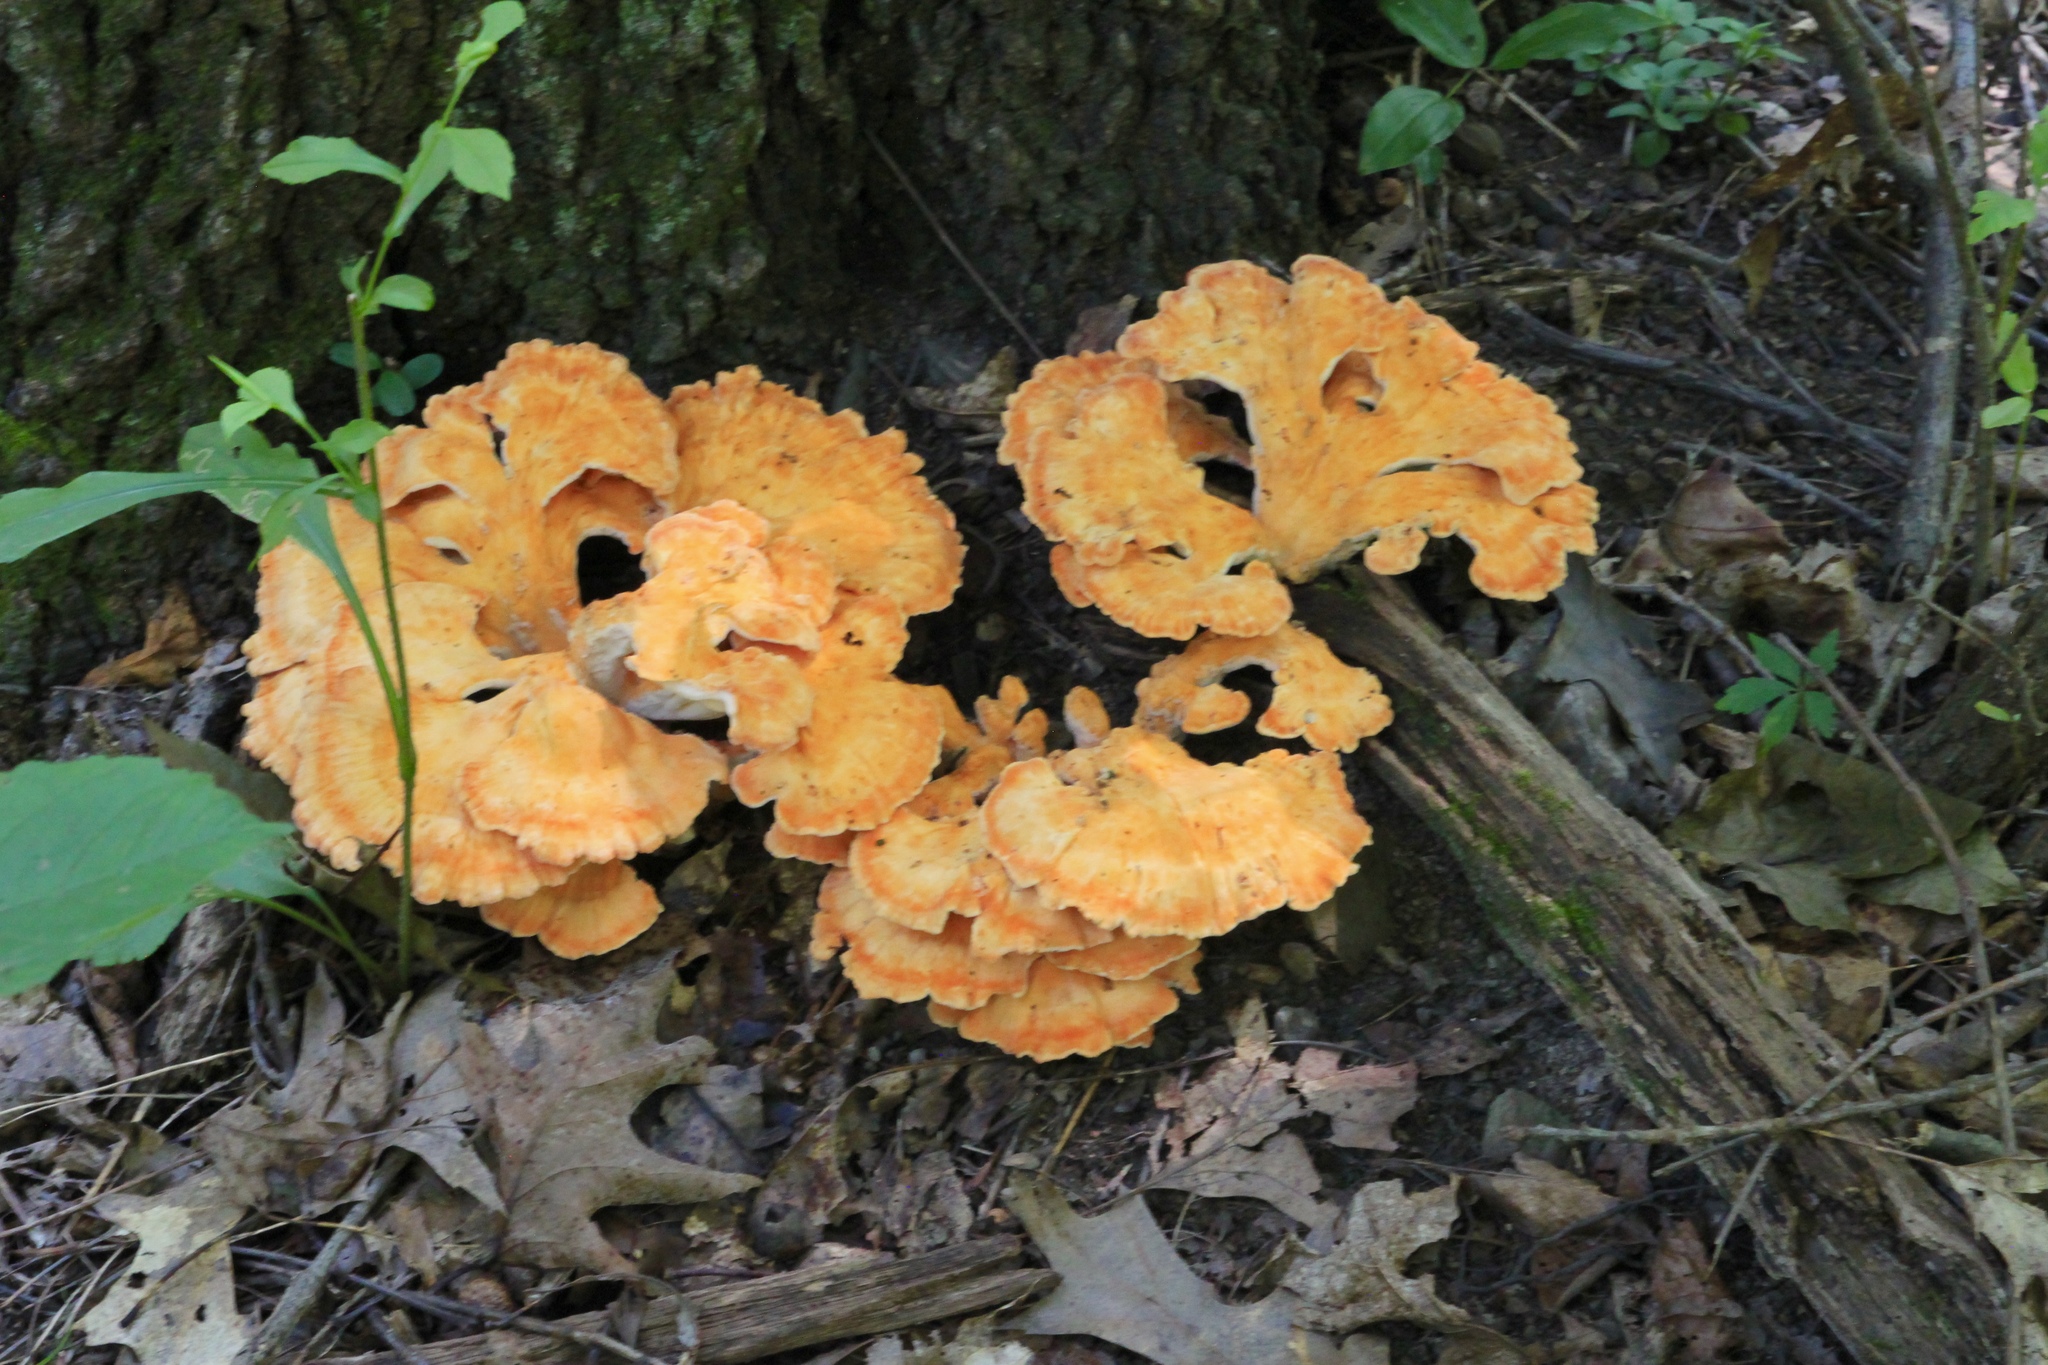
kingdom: Fungi
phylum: Basidiomycota
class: Agaricomycetes
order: Polyporales
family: Laetiporaceae
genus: Laetiporus
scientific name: Laetiporus sulphureus
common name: Chicken of the woods
